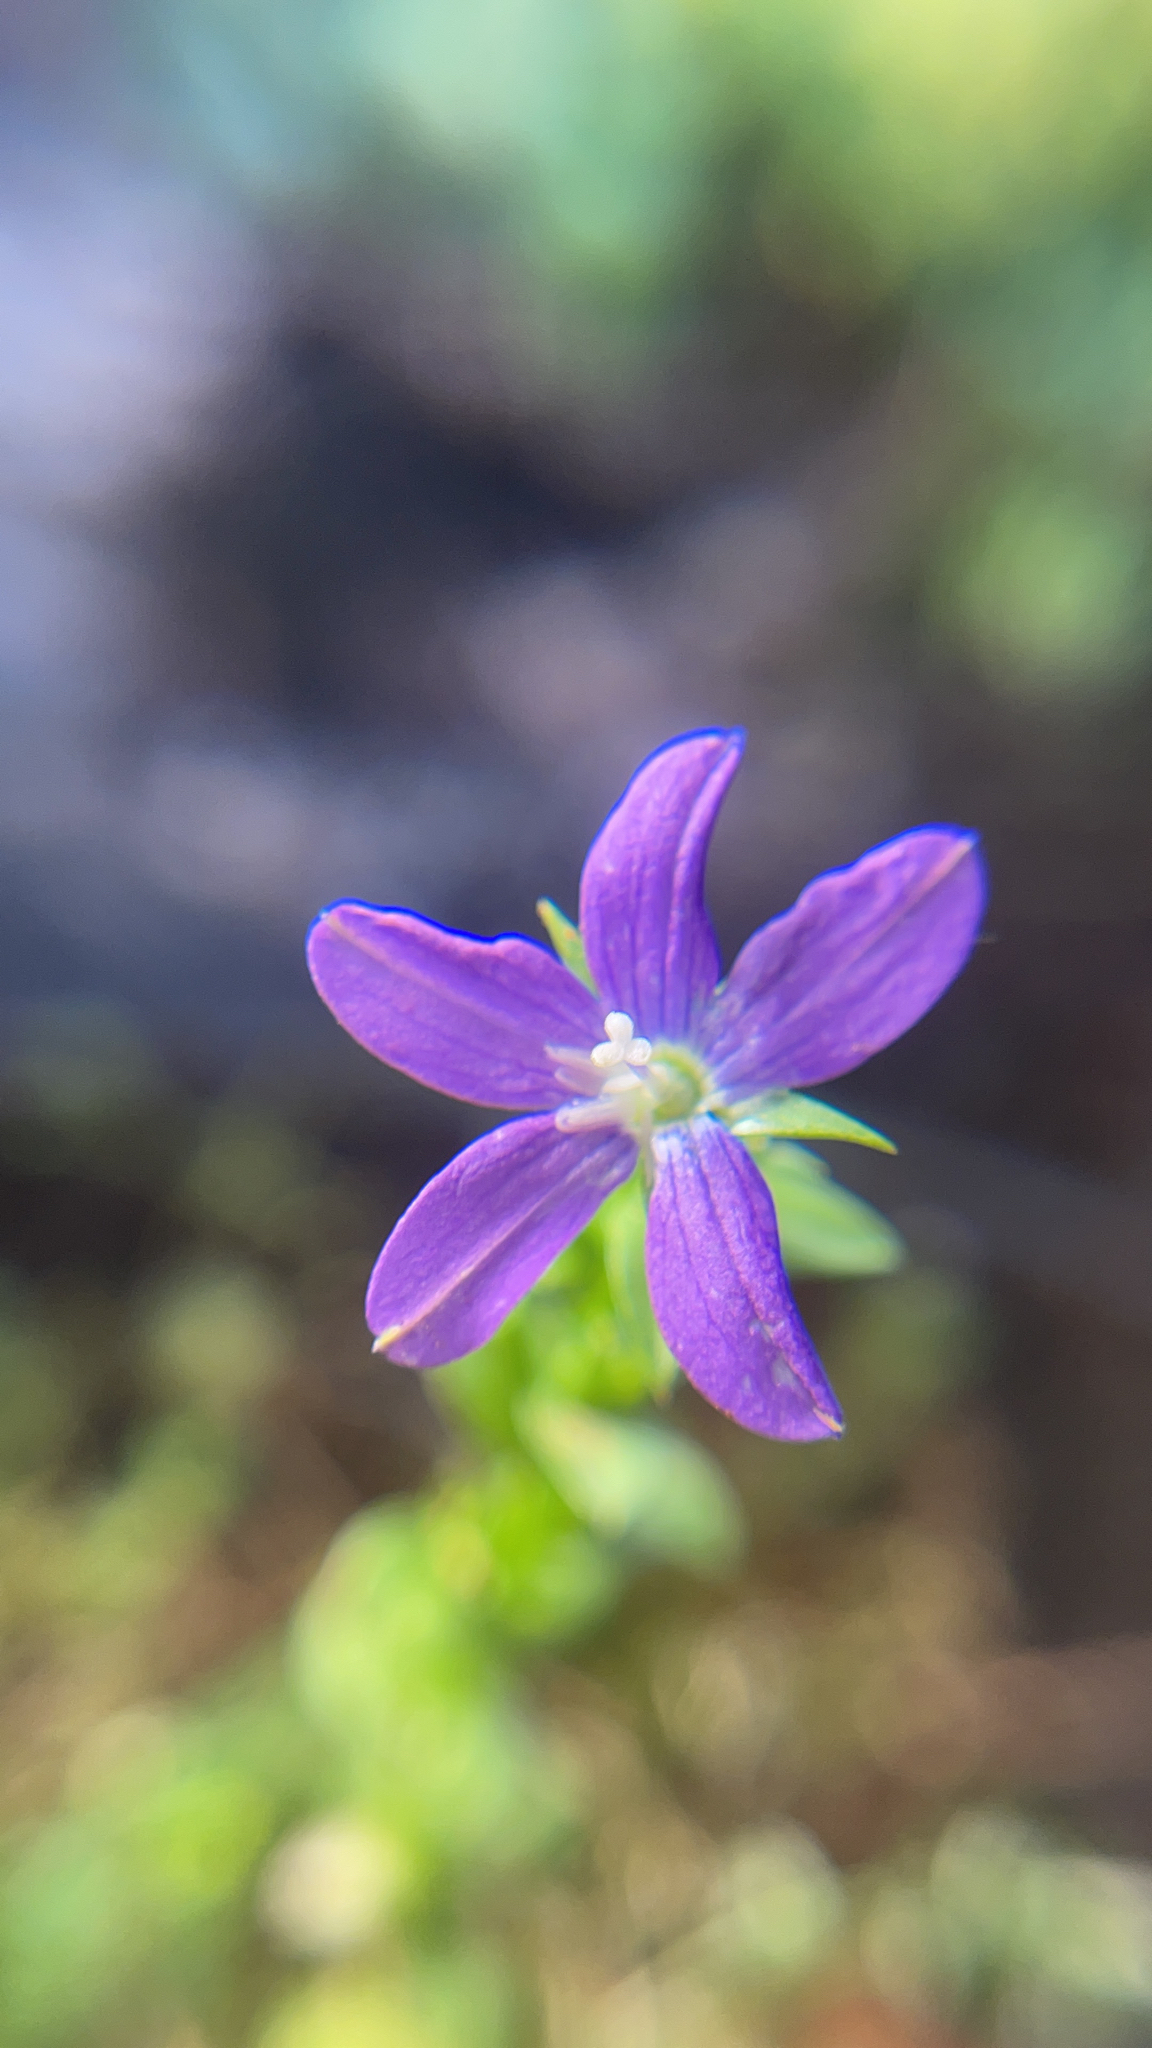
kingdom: Plantae
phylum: Tracheophyta
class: Magnoliopsida
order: Asterales
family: Campanulaceae
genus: Triodanis
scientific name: Triodanis biflora
